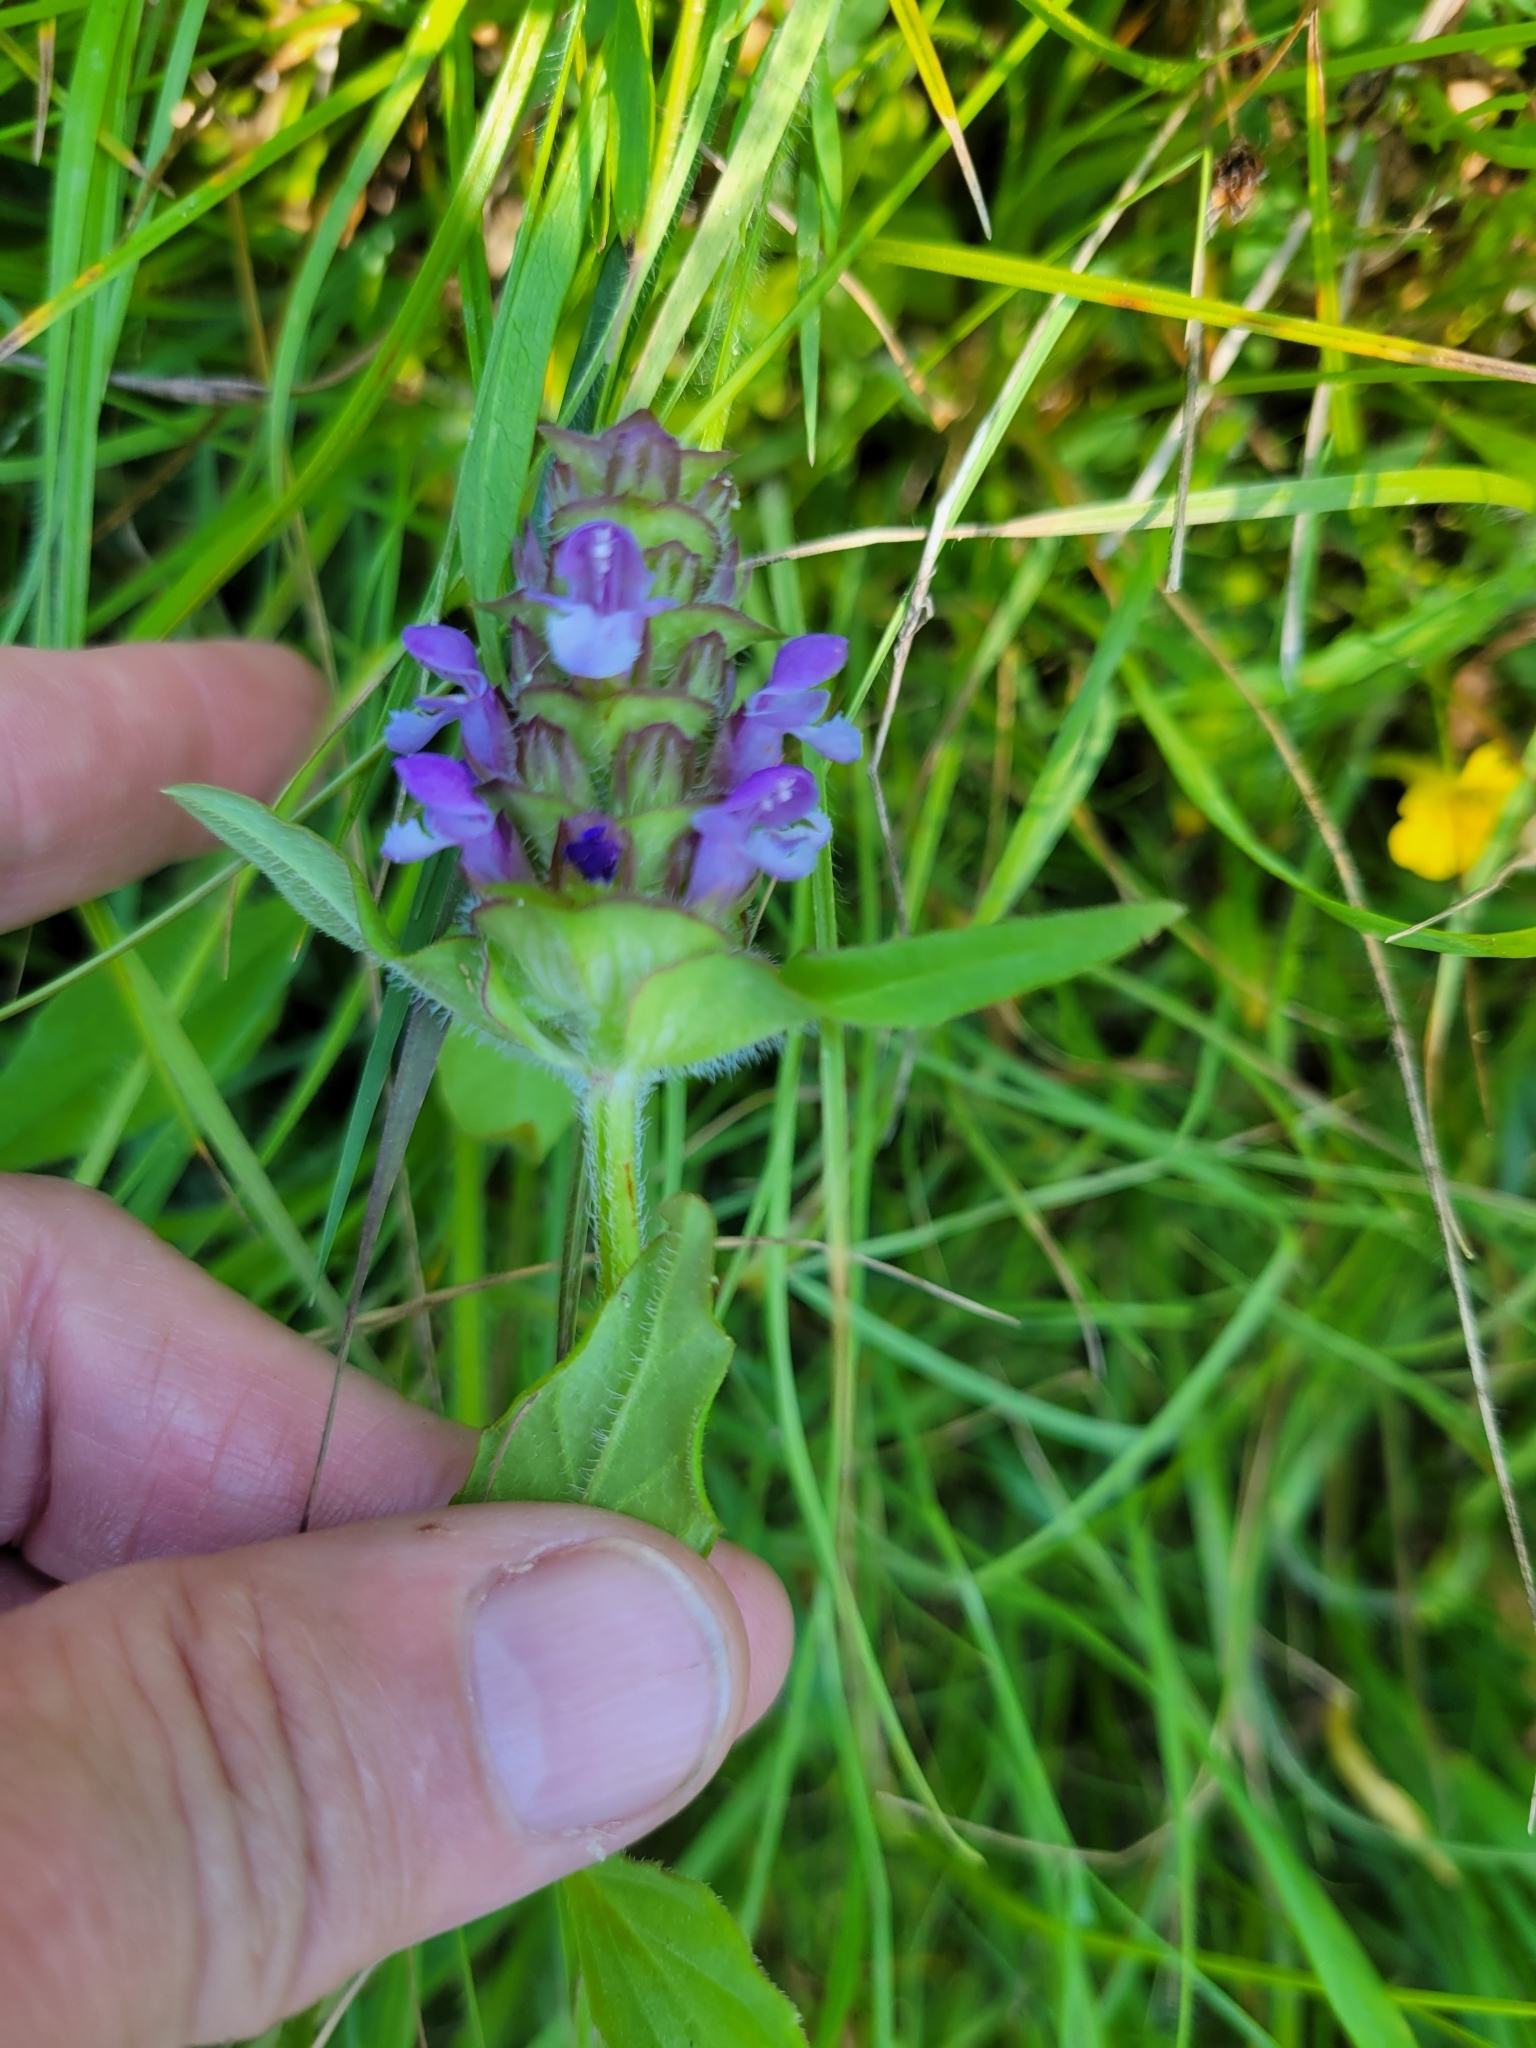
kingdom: Plantae
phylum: Tracheophyta
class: Magnoliopsida
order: Lamiales
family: Lamiaceae
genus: Prunella
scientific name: Prunella vulgaris
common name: Heal-all
